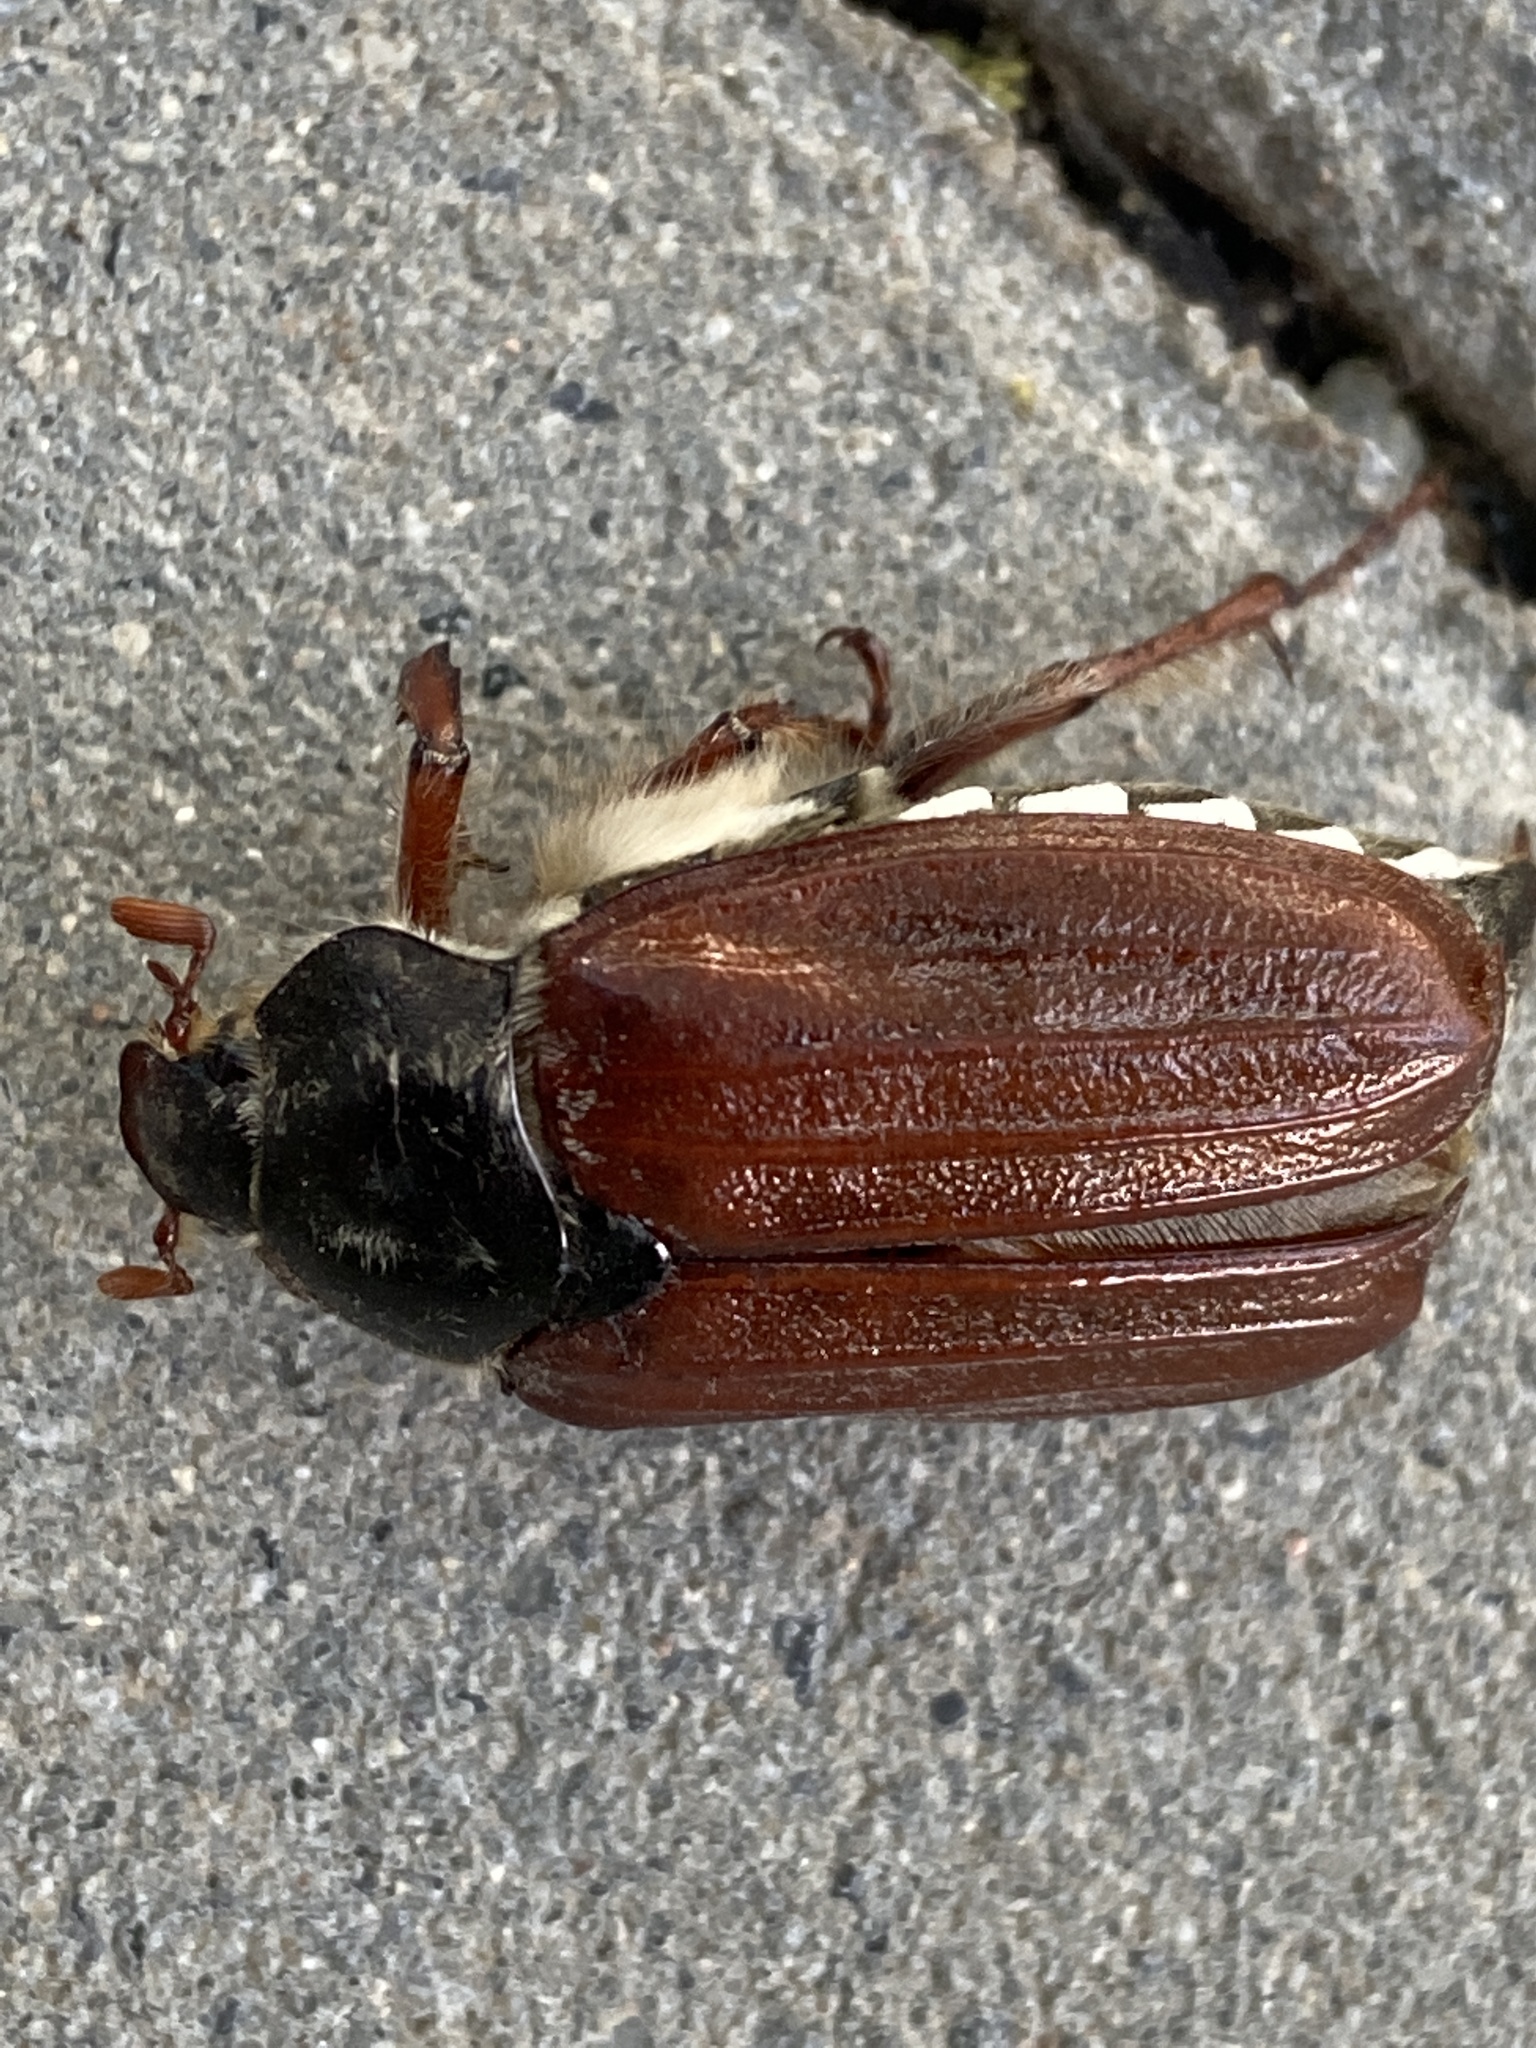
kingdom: Animalia
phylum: Arthropoda
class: Insecta
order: Coleoptera
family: Scarabaeidae
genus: Melolontha
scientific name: Melolontha melolontha
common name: Cockchafer maybeetle
